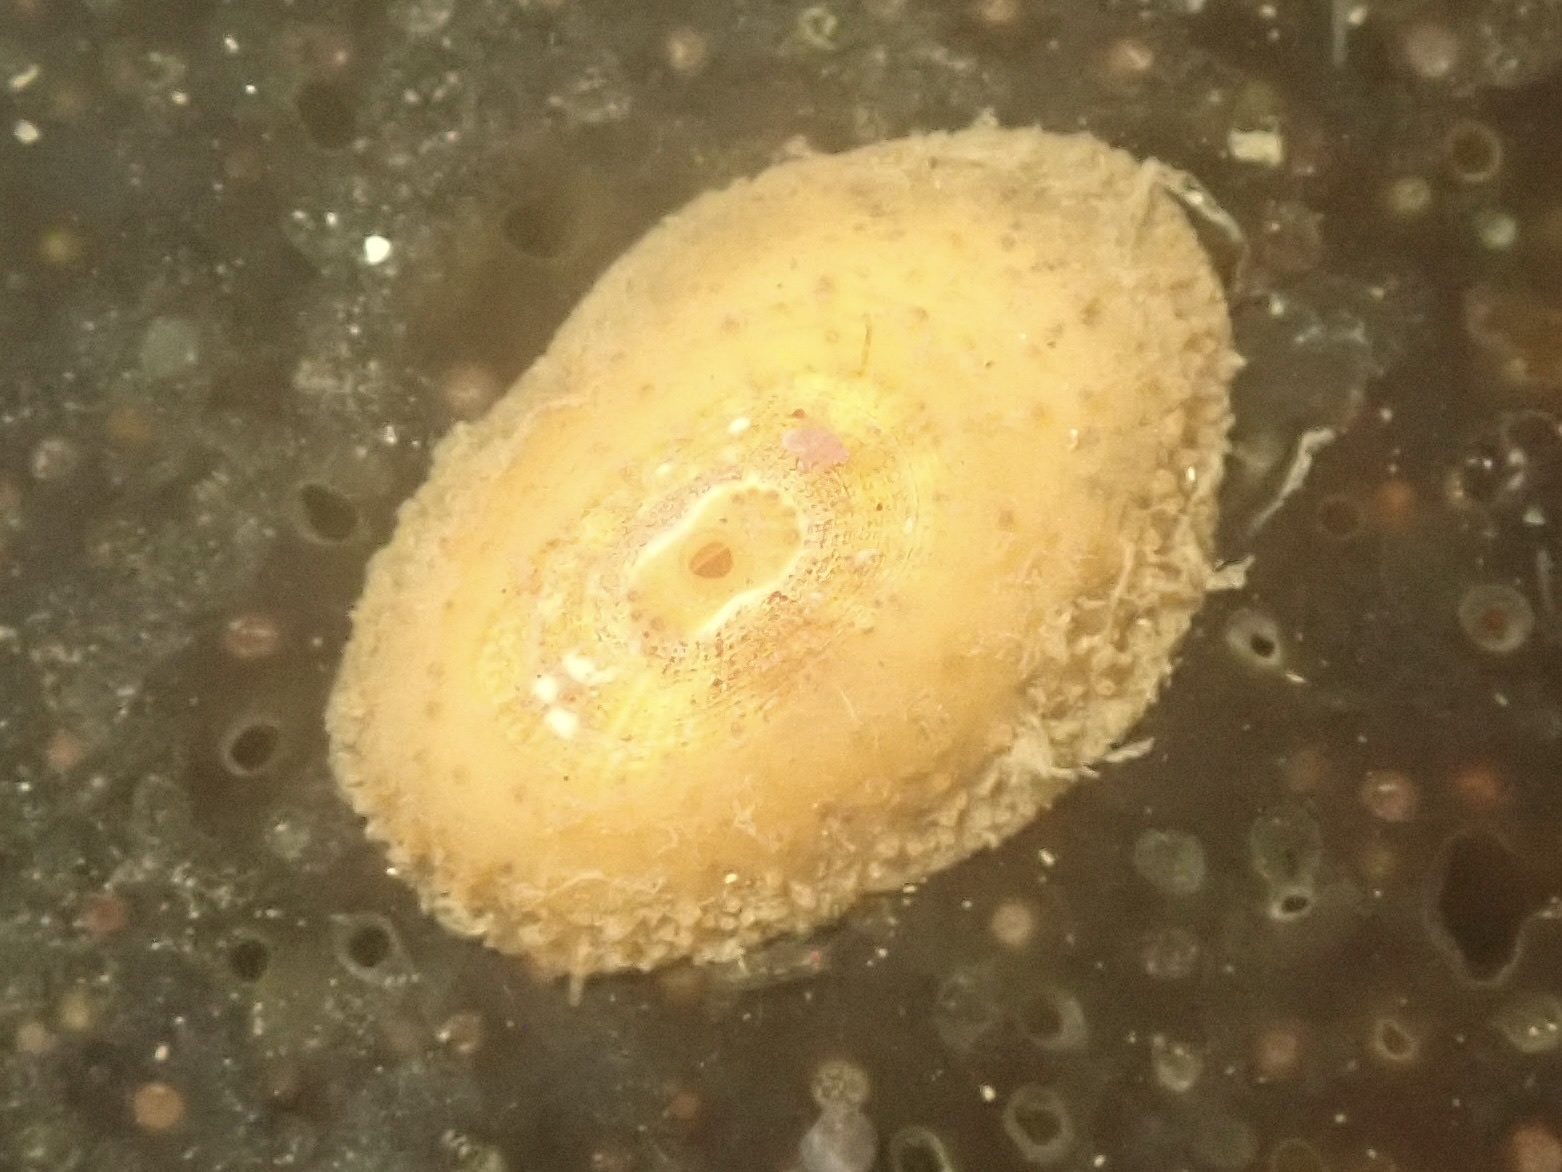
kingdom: Animalia
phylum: Mollusca
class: Gastropoda
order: Lepetellida
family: Fissurellidae
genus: Fissurellidea
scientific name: Fissurellidea bimaculata
